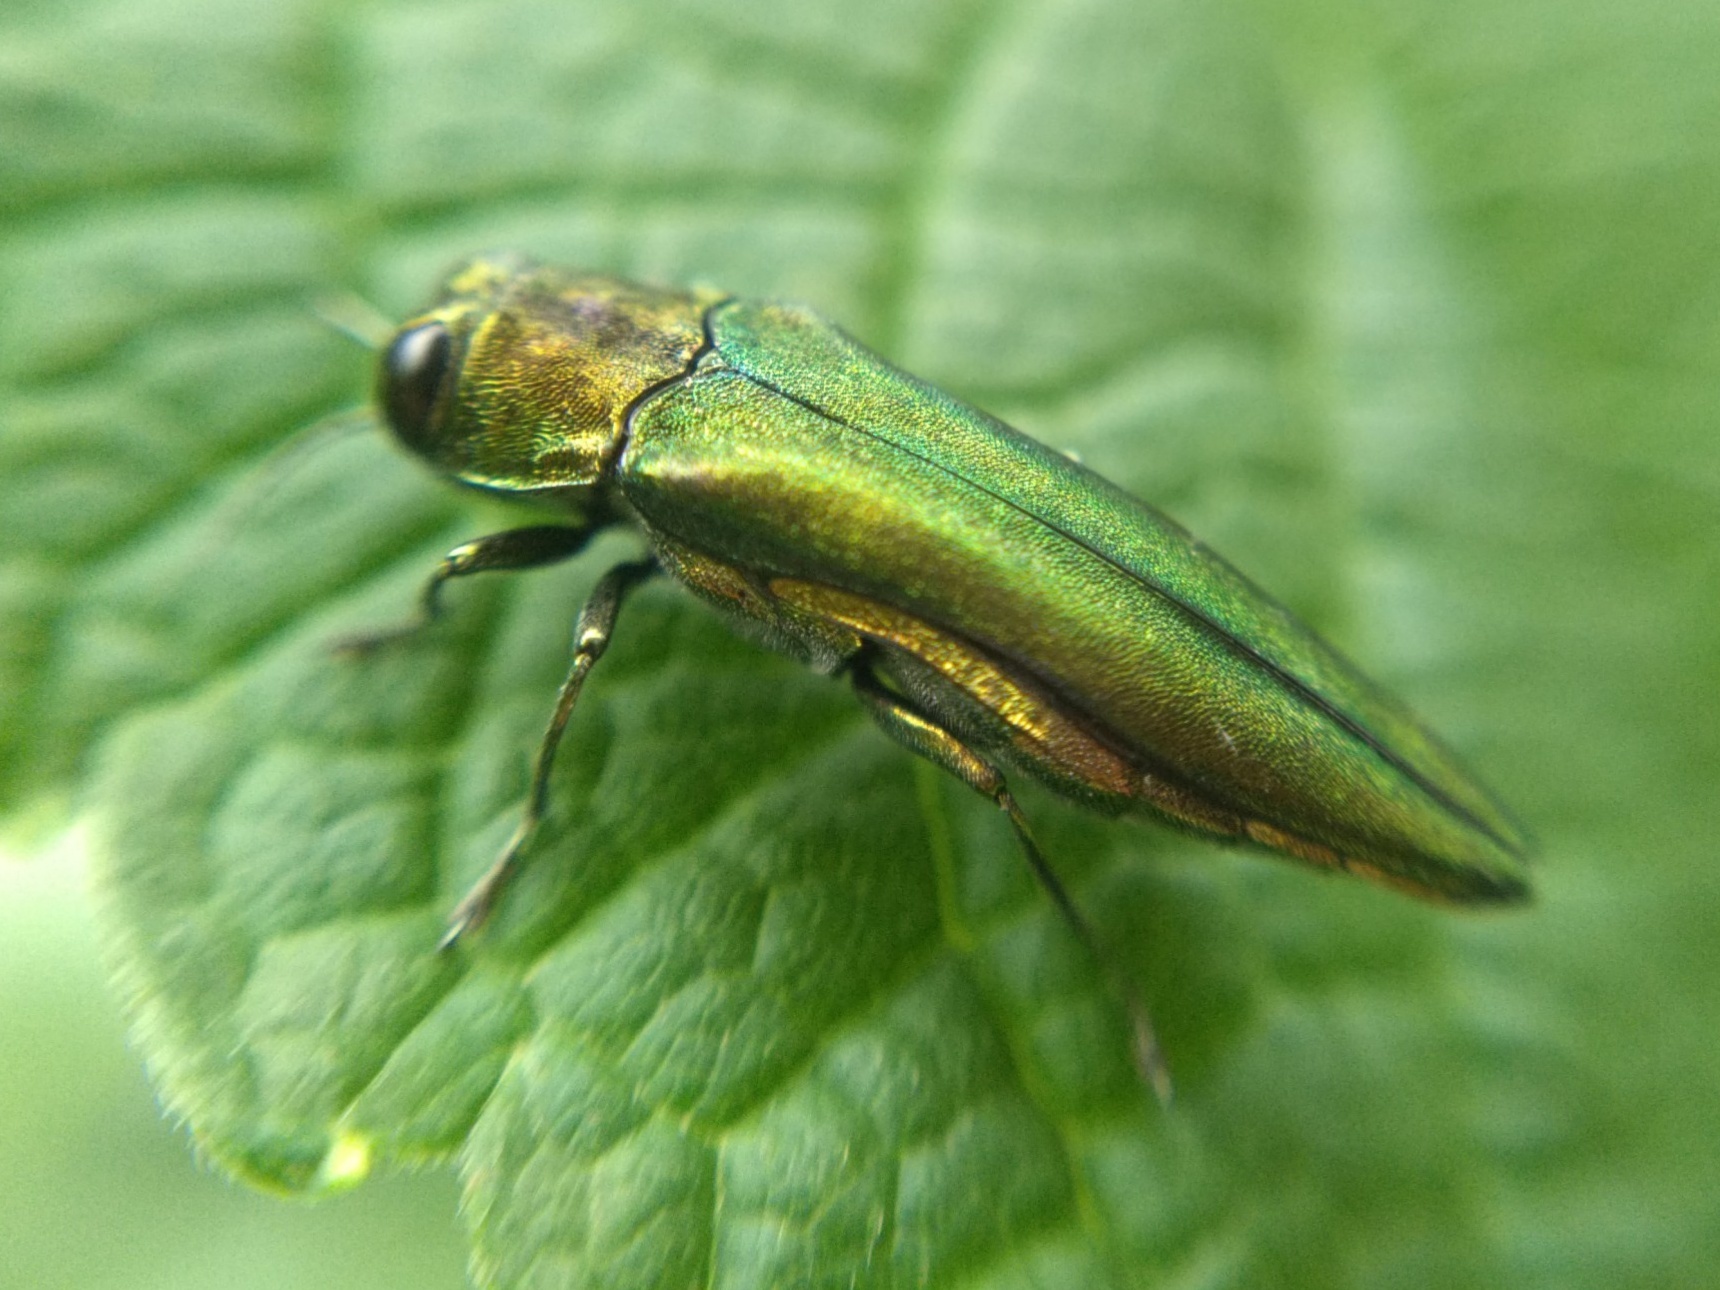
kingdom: Animalia
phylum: Arthropoda
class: Insecta
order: Coleoptera
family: Buprestidae
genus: Agrilus
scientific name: Agrilus planipennis
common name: Emerald ash borer
